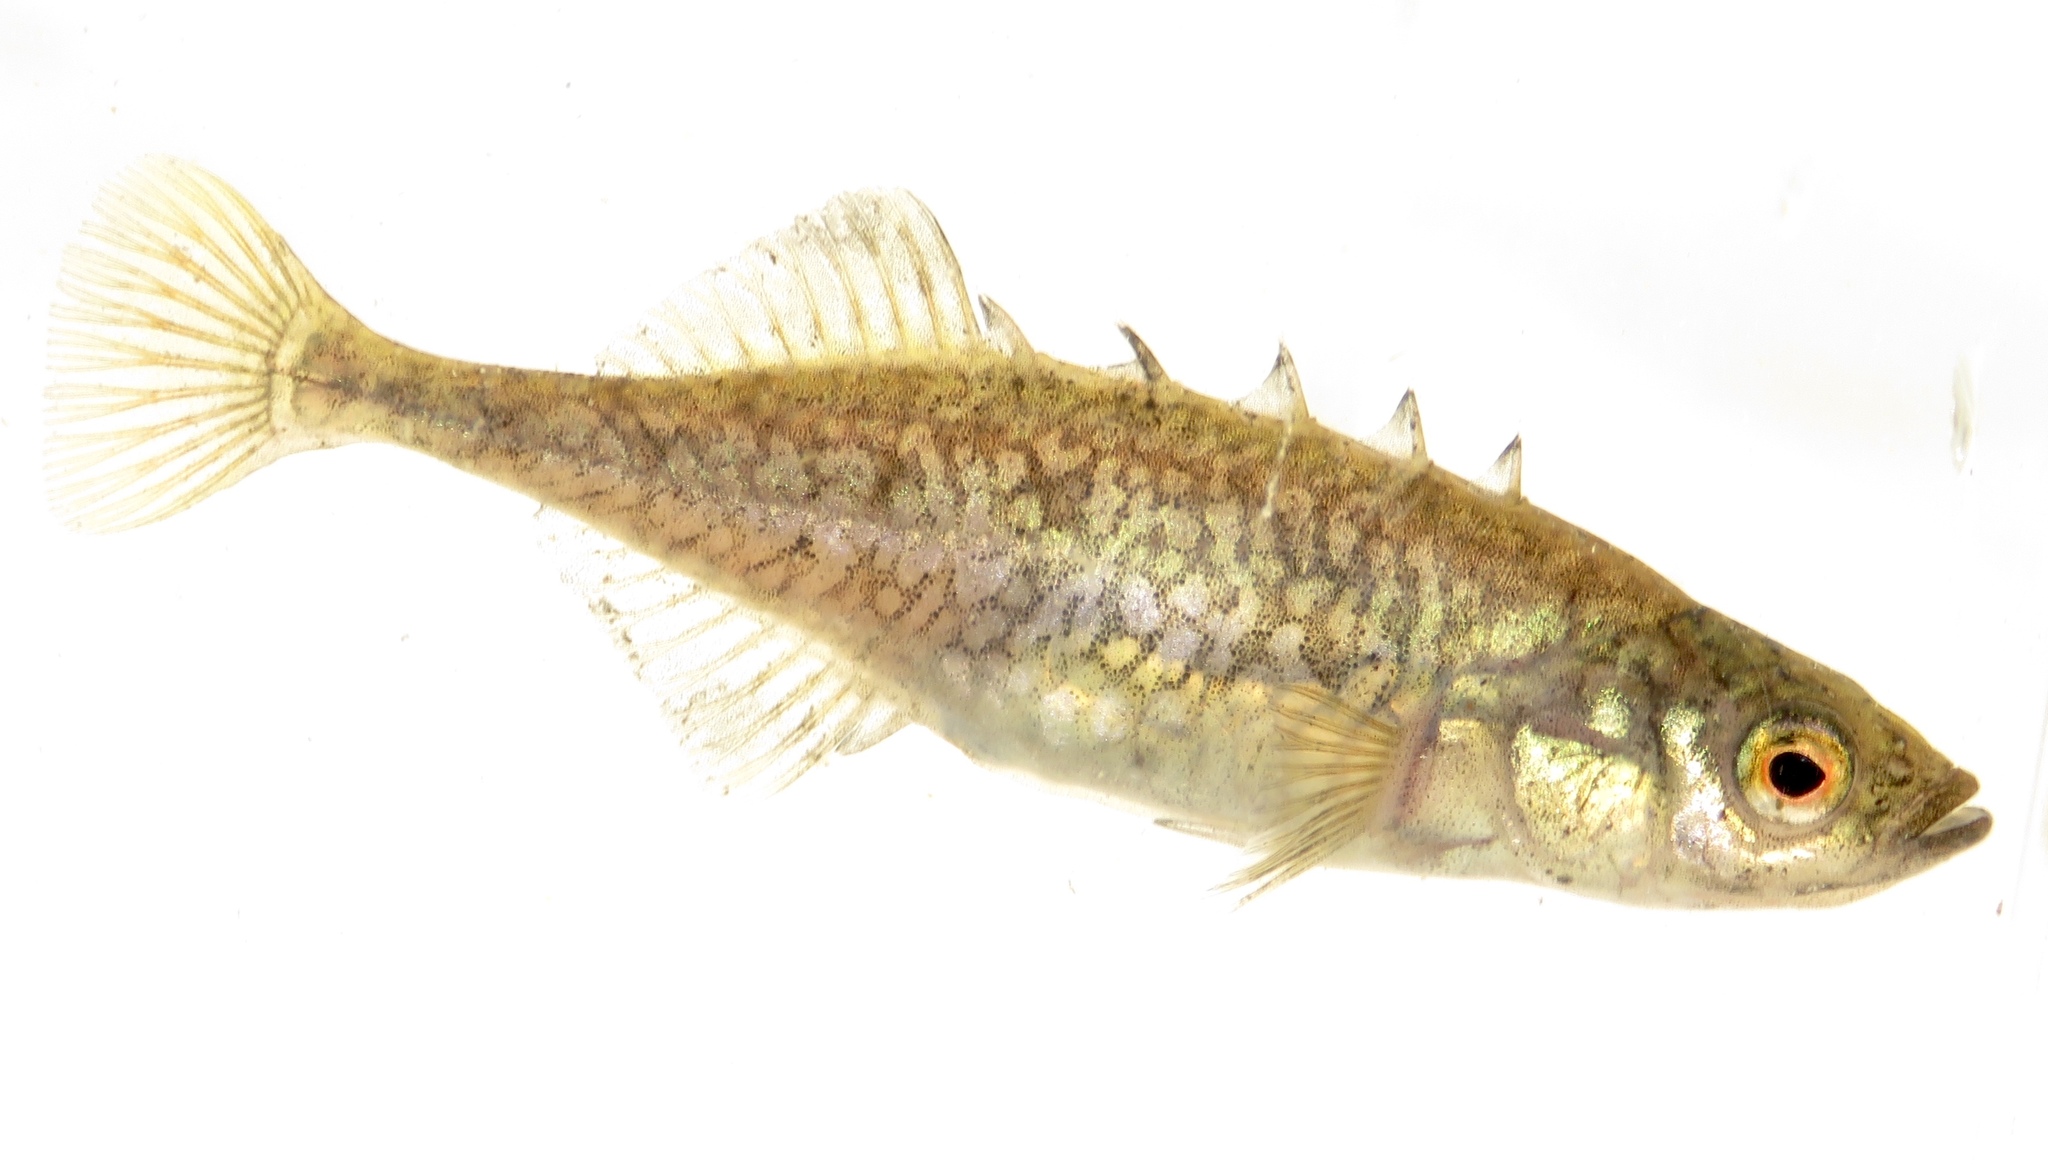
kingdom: Animalia
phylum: Chordata
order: Gasterosteiformes
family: Gasterosteidae
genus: Culaea
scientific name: Culaea inconstans
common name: Brook stickleback
